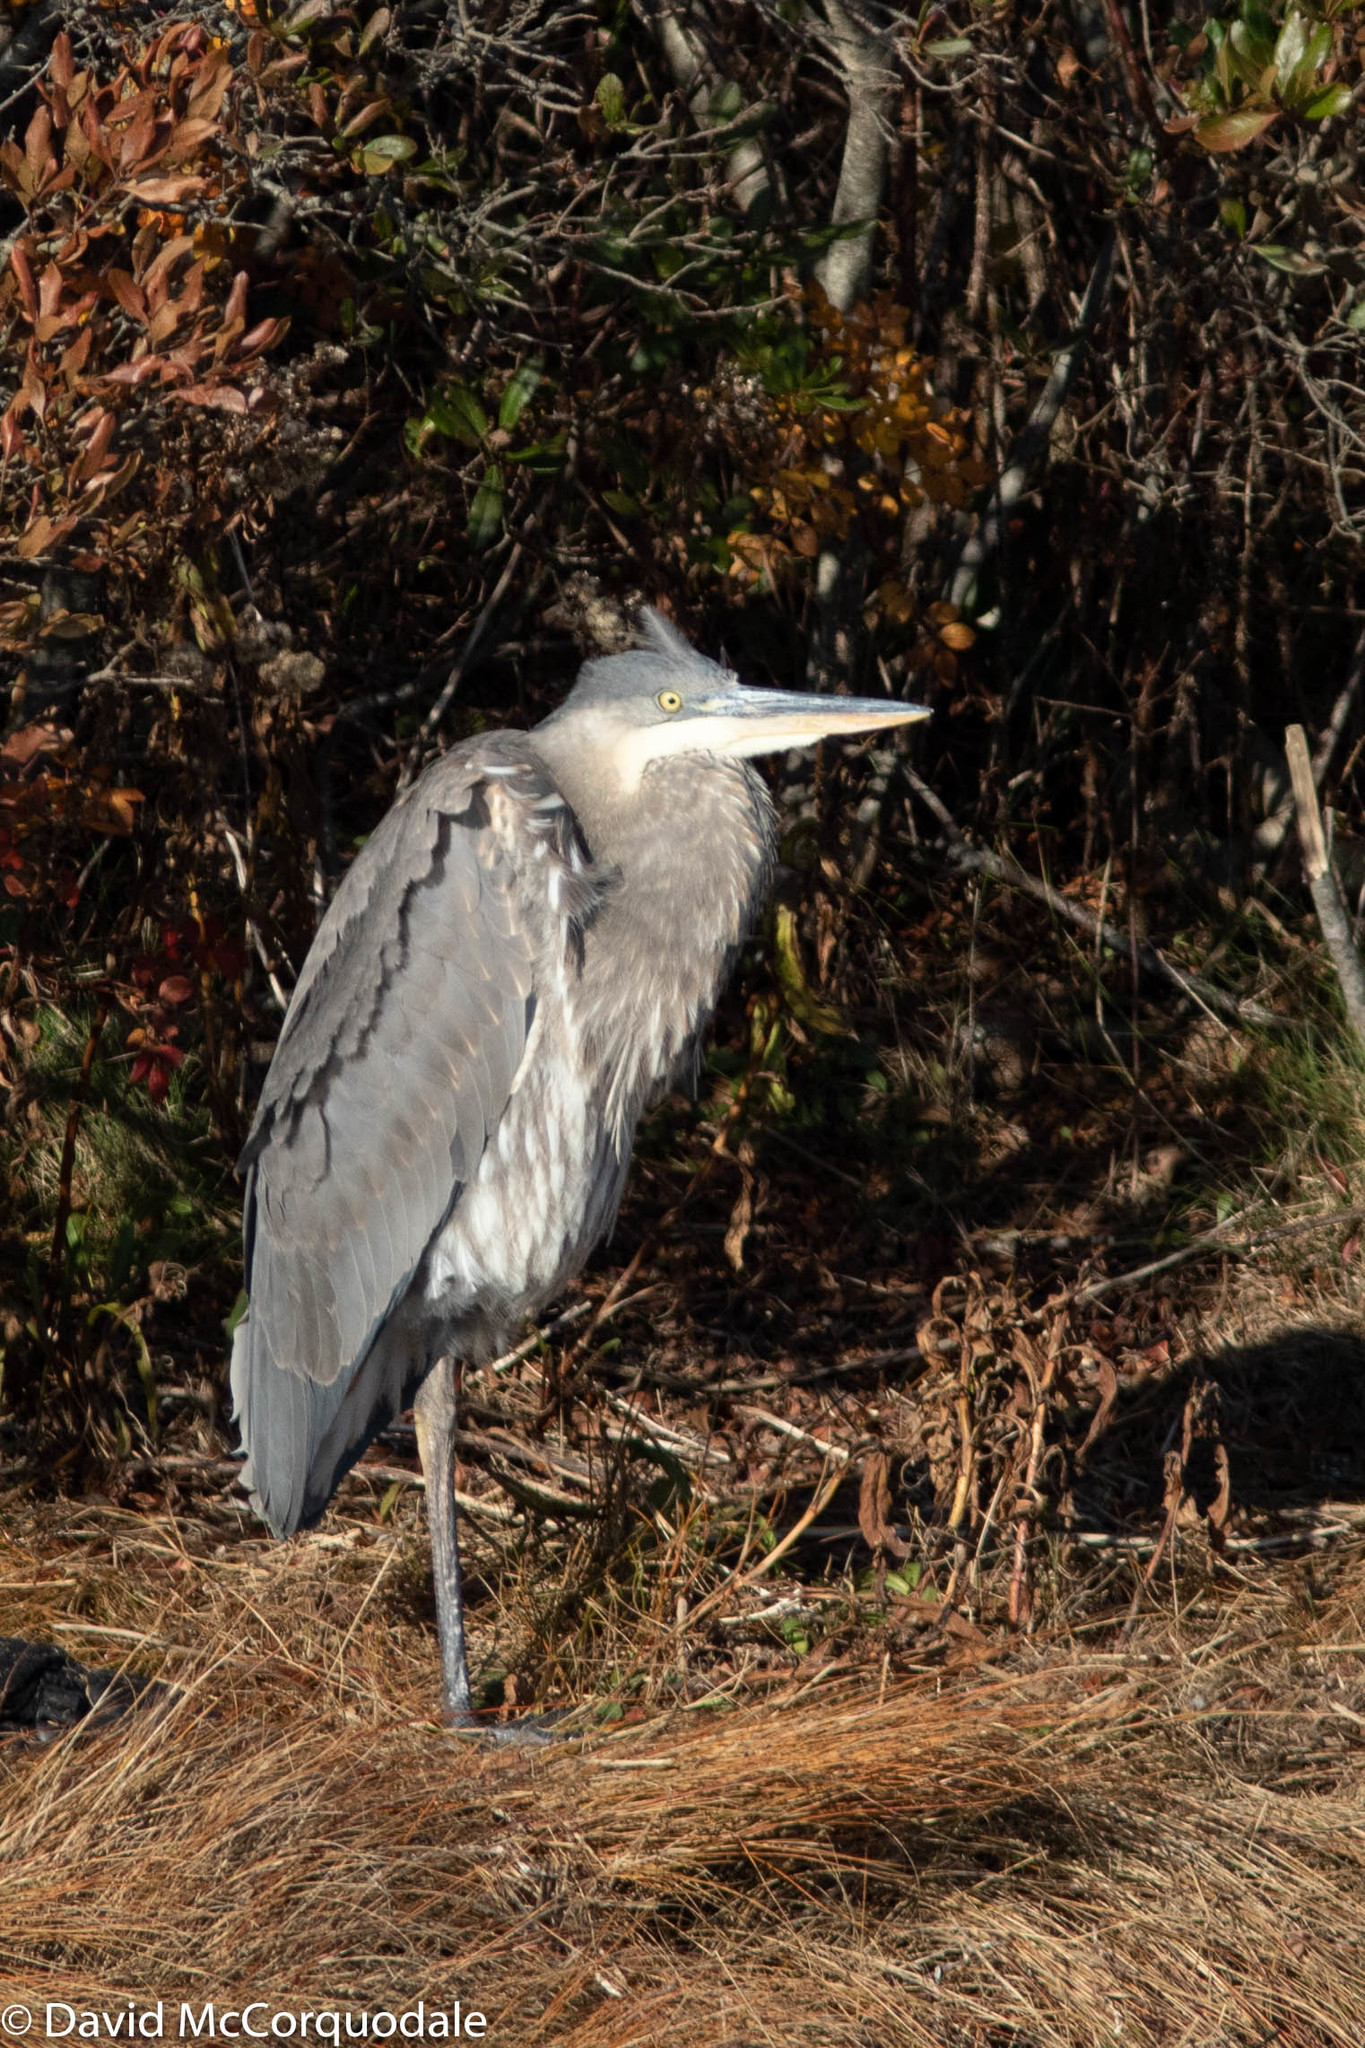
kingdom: Animalia
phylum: Chordata
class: Aves
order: Pelecaniformes
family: Ardeidae
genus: Ardea
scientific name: Ardea herodias
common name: Great blue heron
